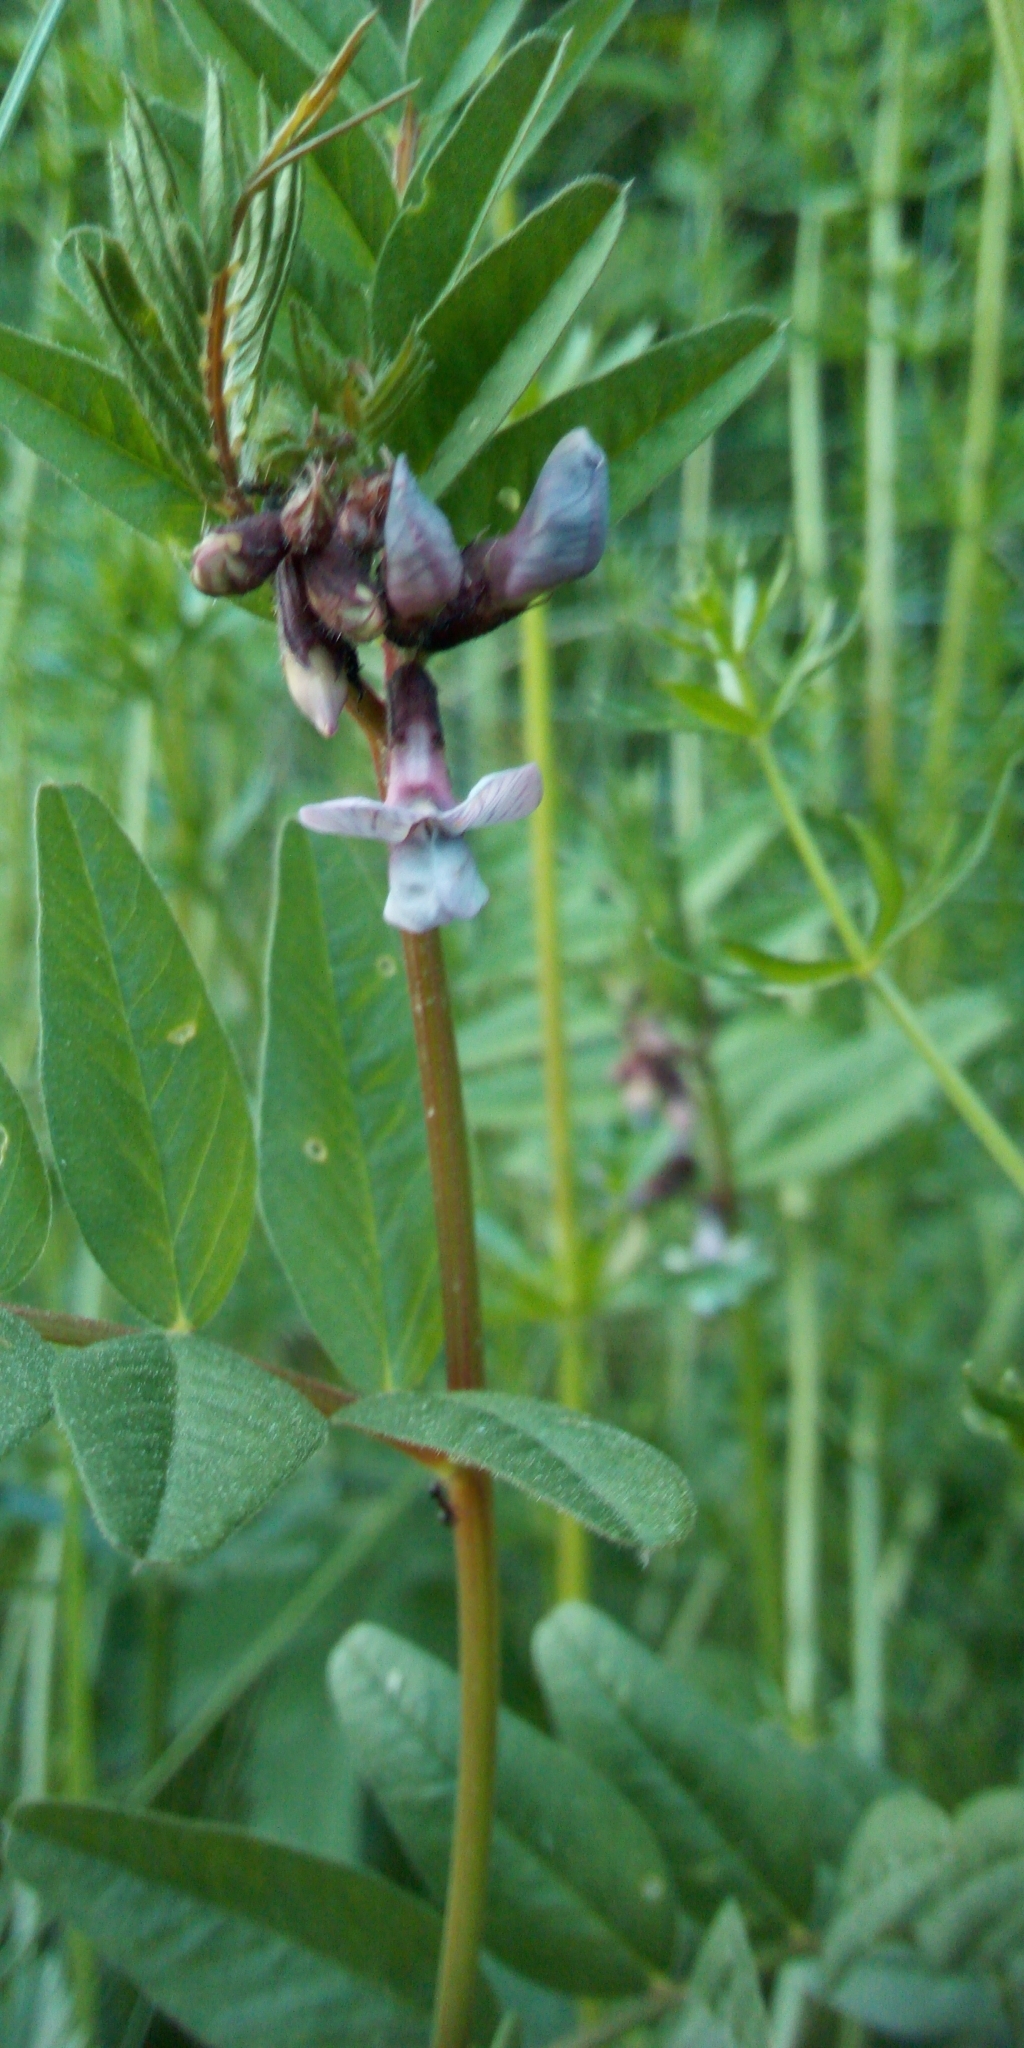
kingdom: Plantae
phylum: Tracheophyta
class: Magnoliopsida
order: Fabales
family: Fabaceae
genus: Vicia
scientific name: Vicia sepium
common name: Bush vetch
